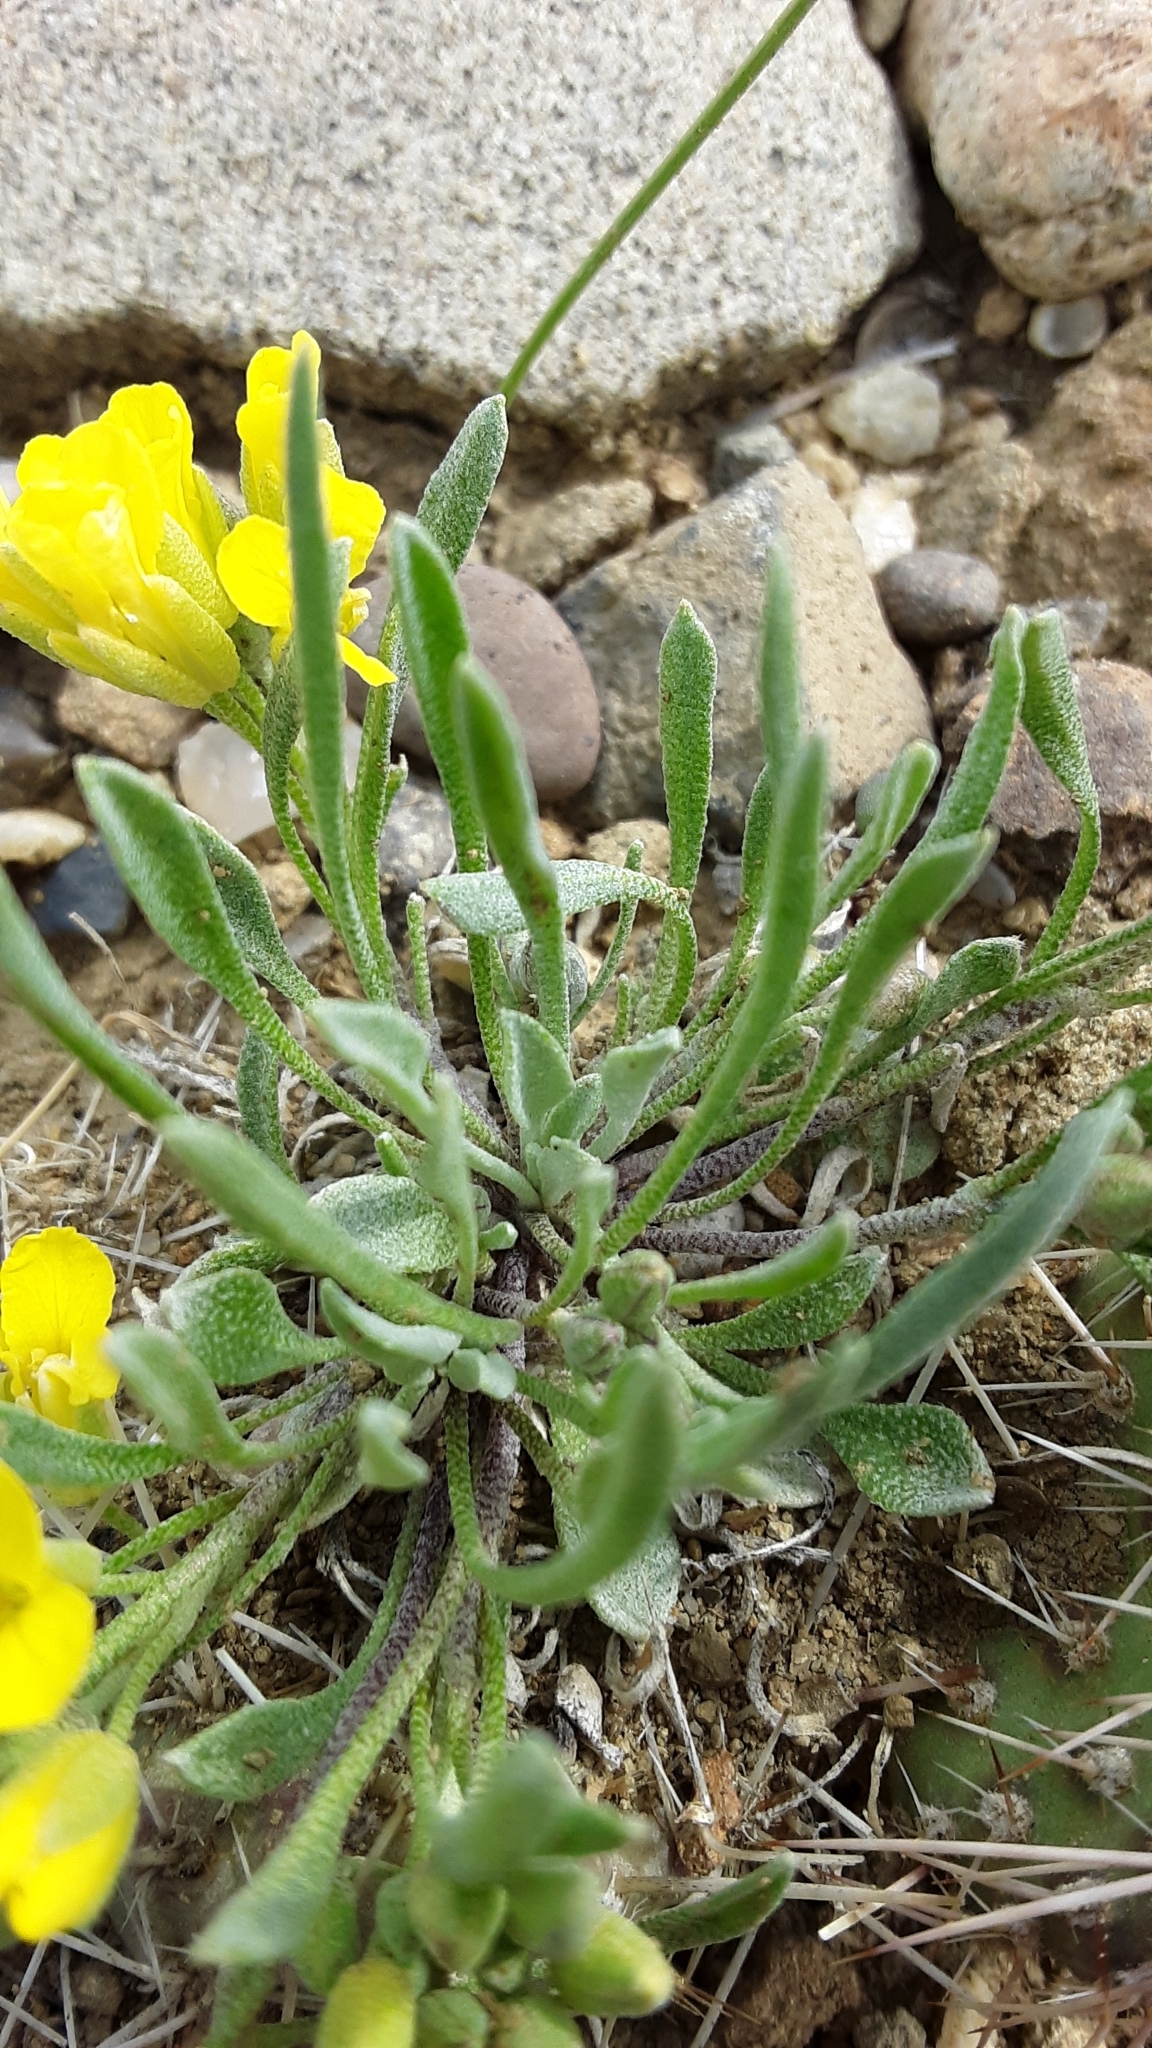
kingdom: Plantae
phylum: Tracheophyta
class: Magnoliopsida
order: Brassicales
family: Brassicaceae
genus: Physaria
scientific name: Physaria spatulata
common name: Alpine bladderpod
